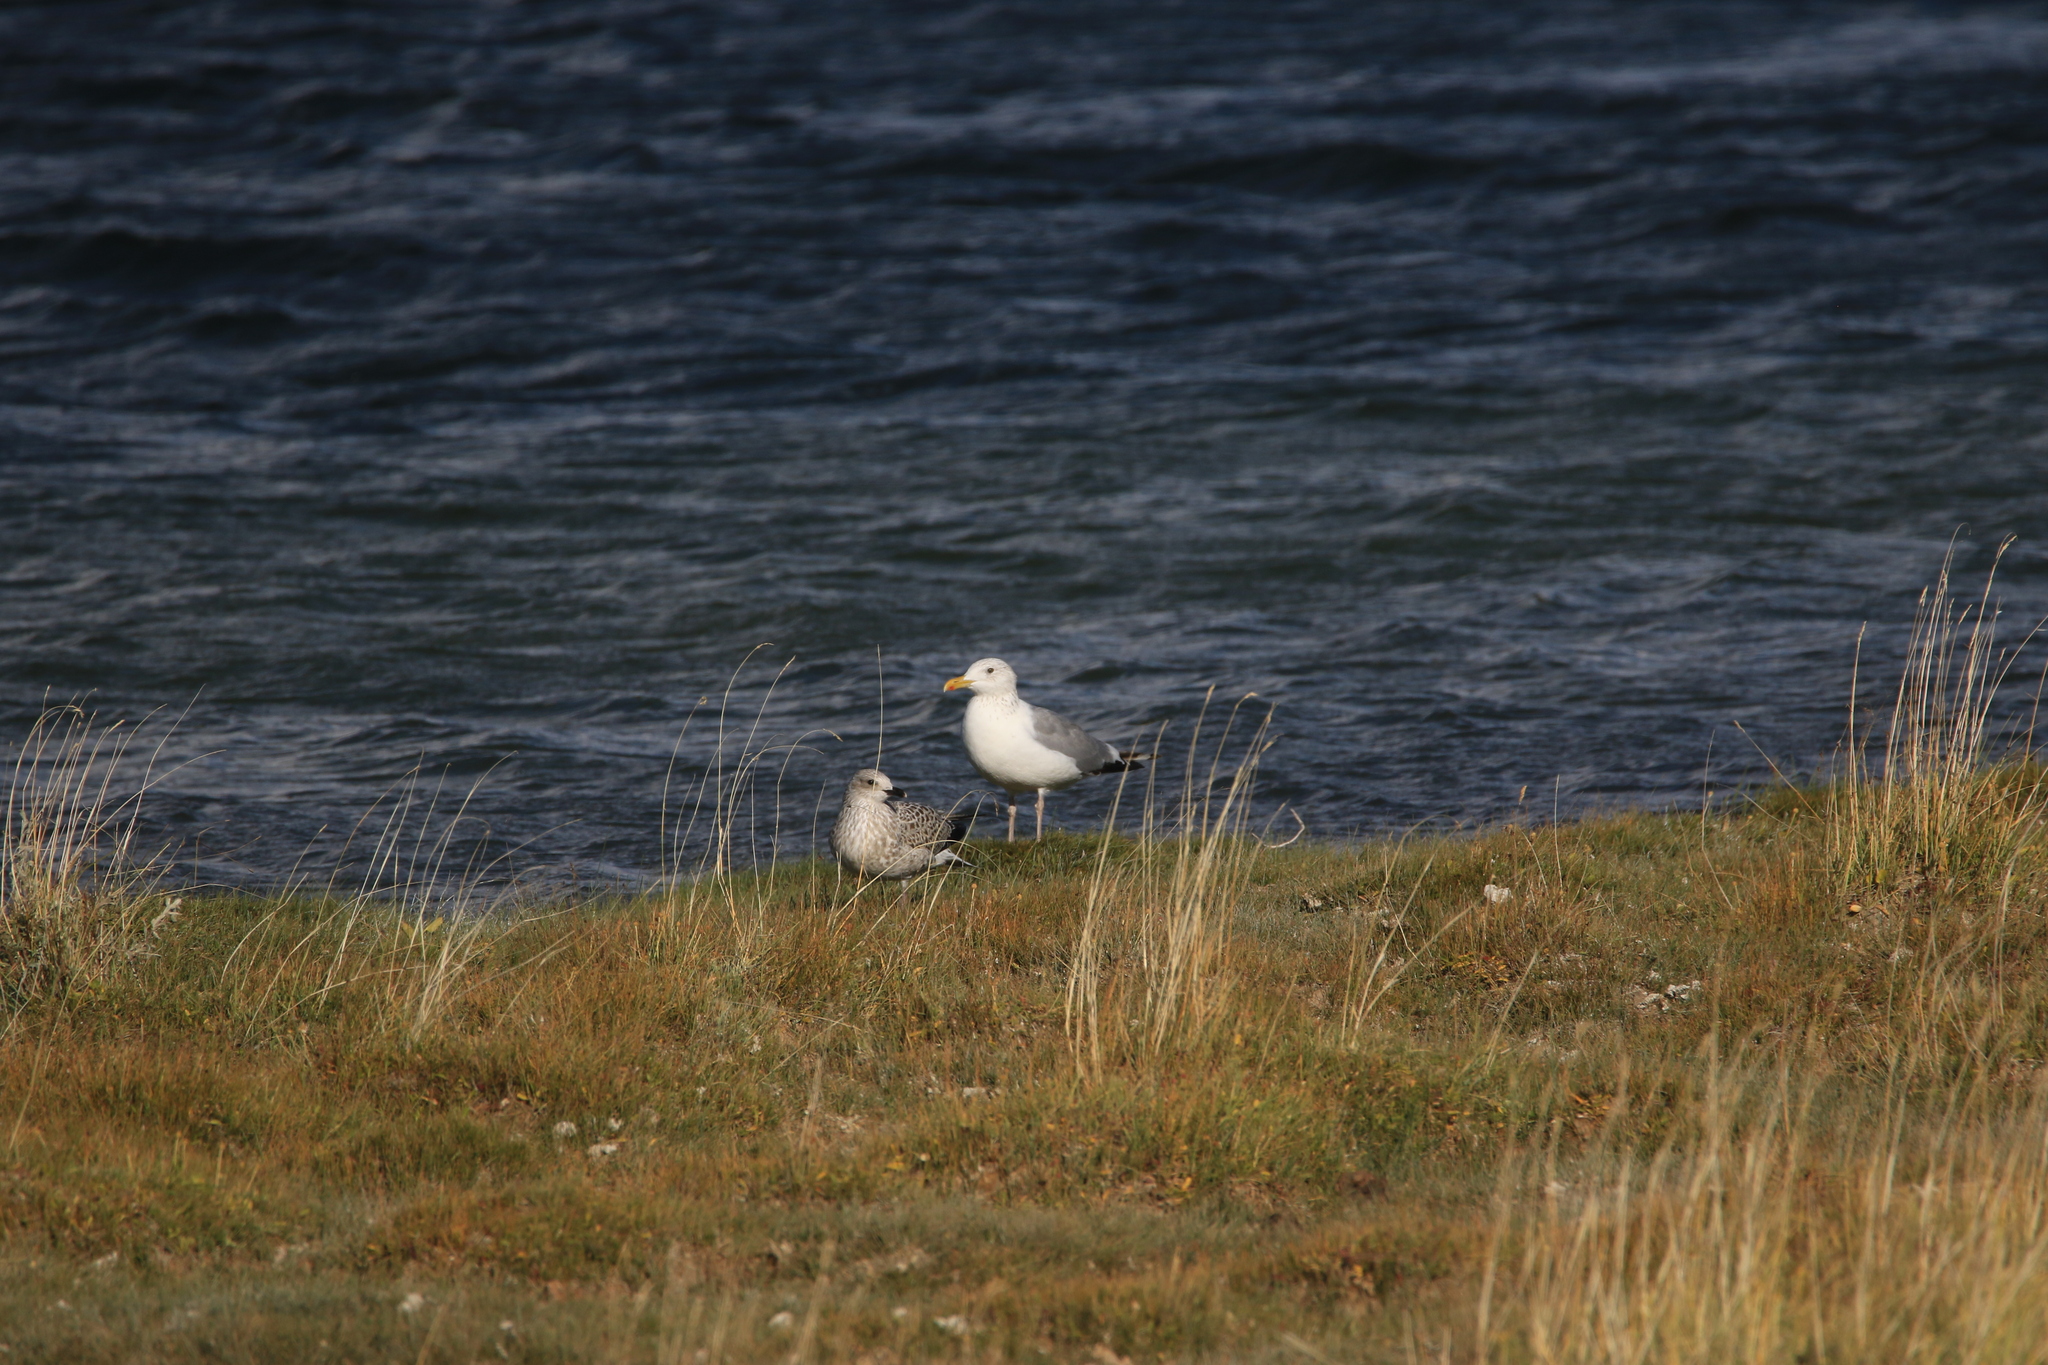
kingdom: Animalia
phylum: Chordata
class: Aves
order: Charadriiformes
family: Laridae
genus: Larus
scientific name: Larus argentatus
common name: Herring gull
